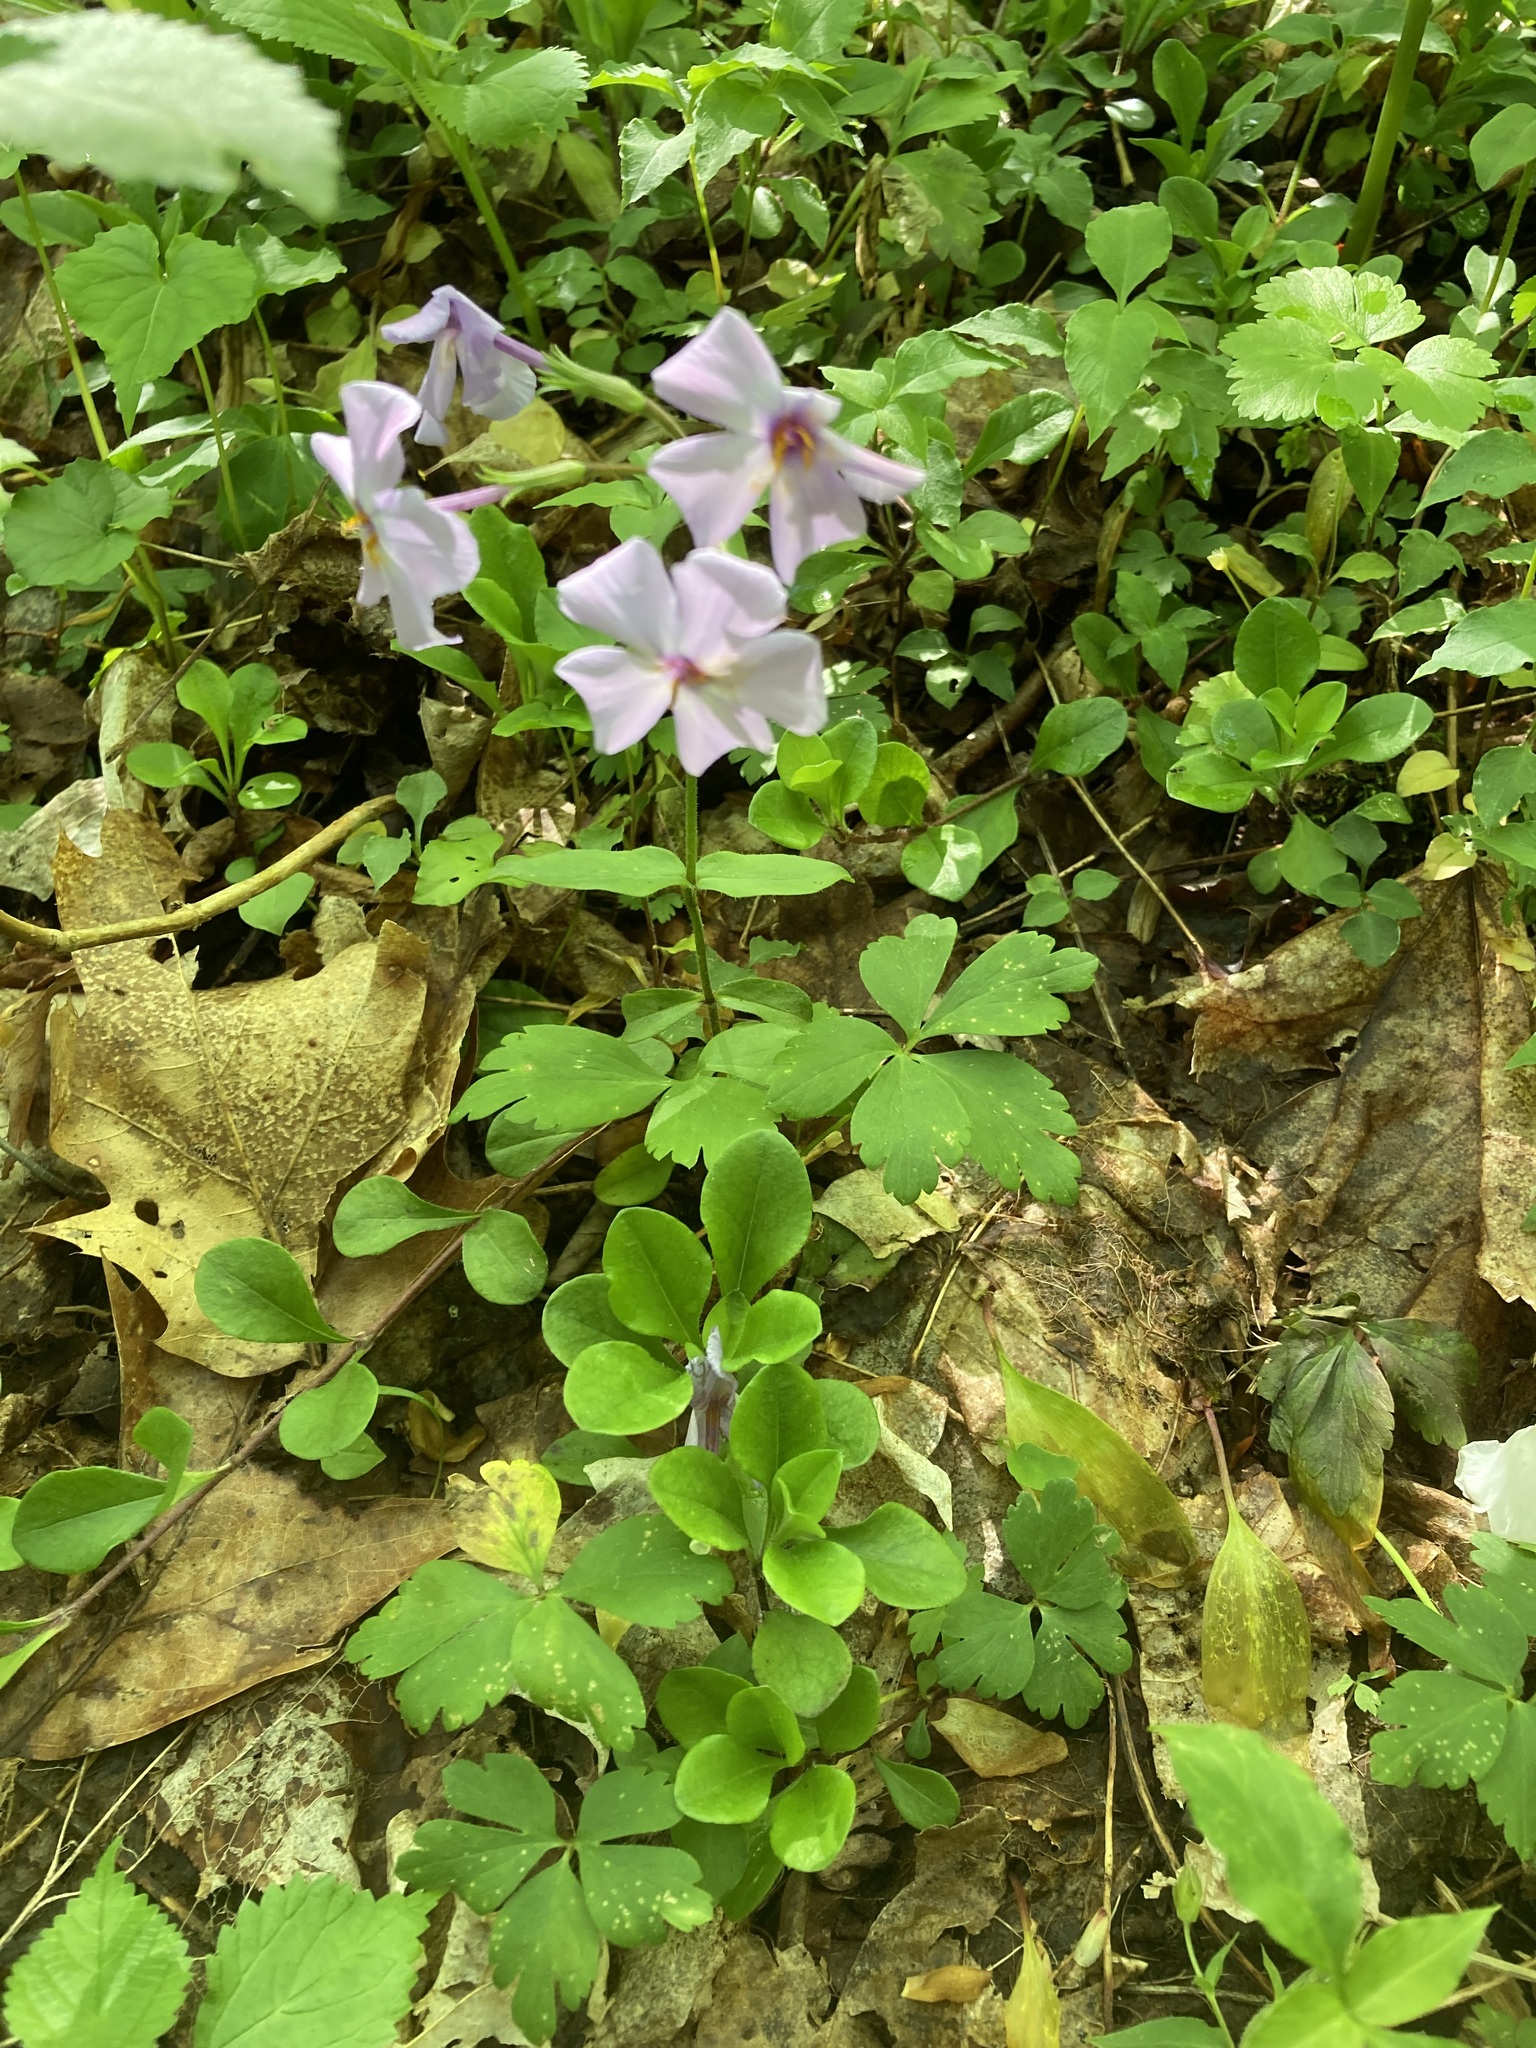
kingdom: Plantae
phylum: Tracheophyta
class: Magnoliopsida
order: Ericales
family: Polemoniaceae
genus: Phlox
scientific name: Phlox stolonifera
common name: Creeping phlox
